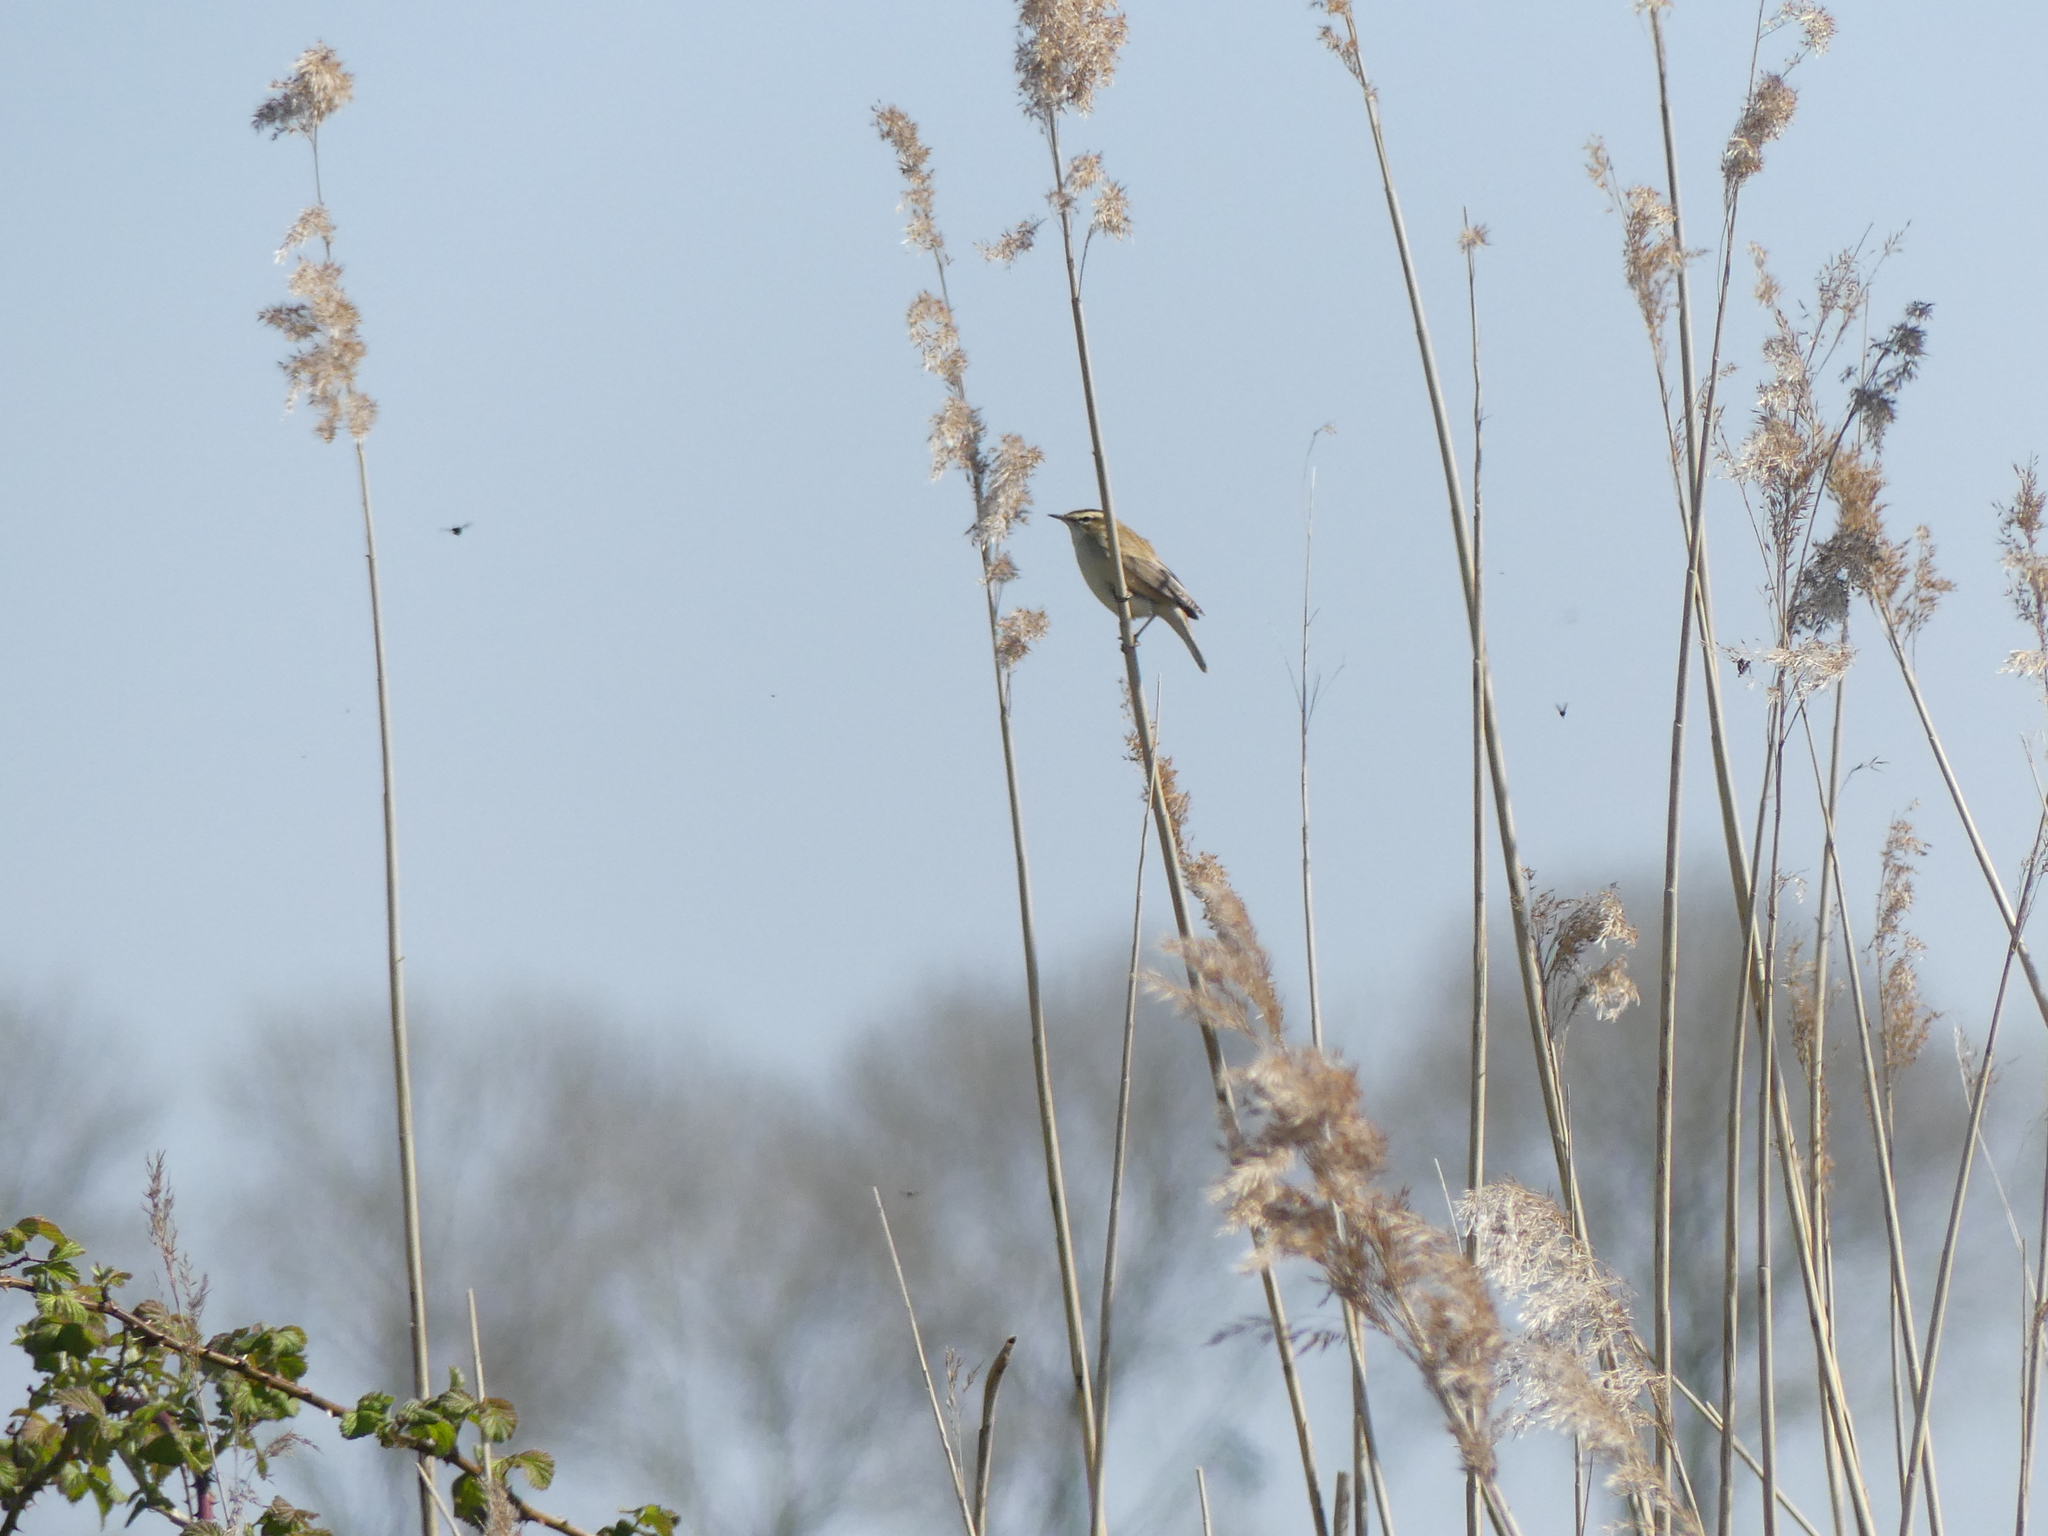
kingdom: Animalia
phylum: Chordata
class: Aves
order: Passeriformes
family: Acrocephalidae
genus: Acrocephalus
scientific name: Acrocephalus schoenobaenus
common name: Sedge warbler
